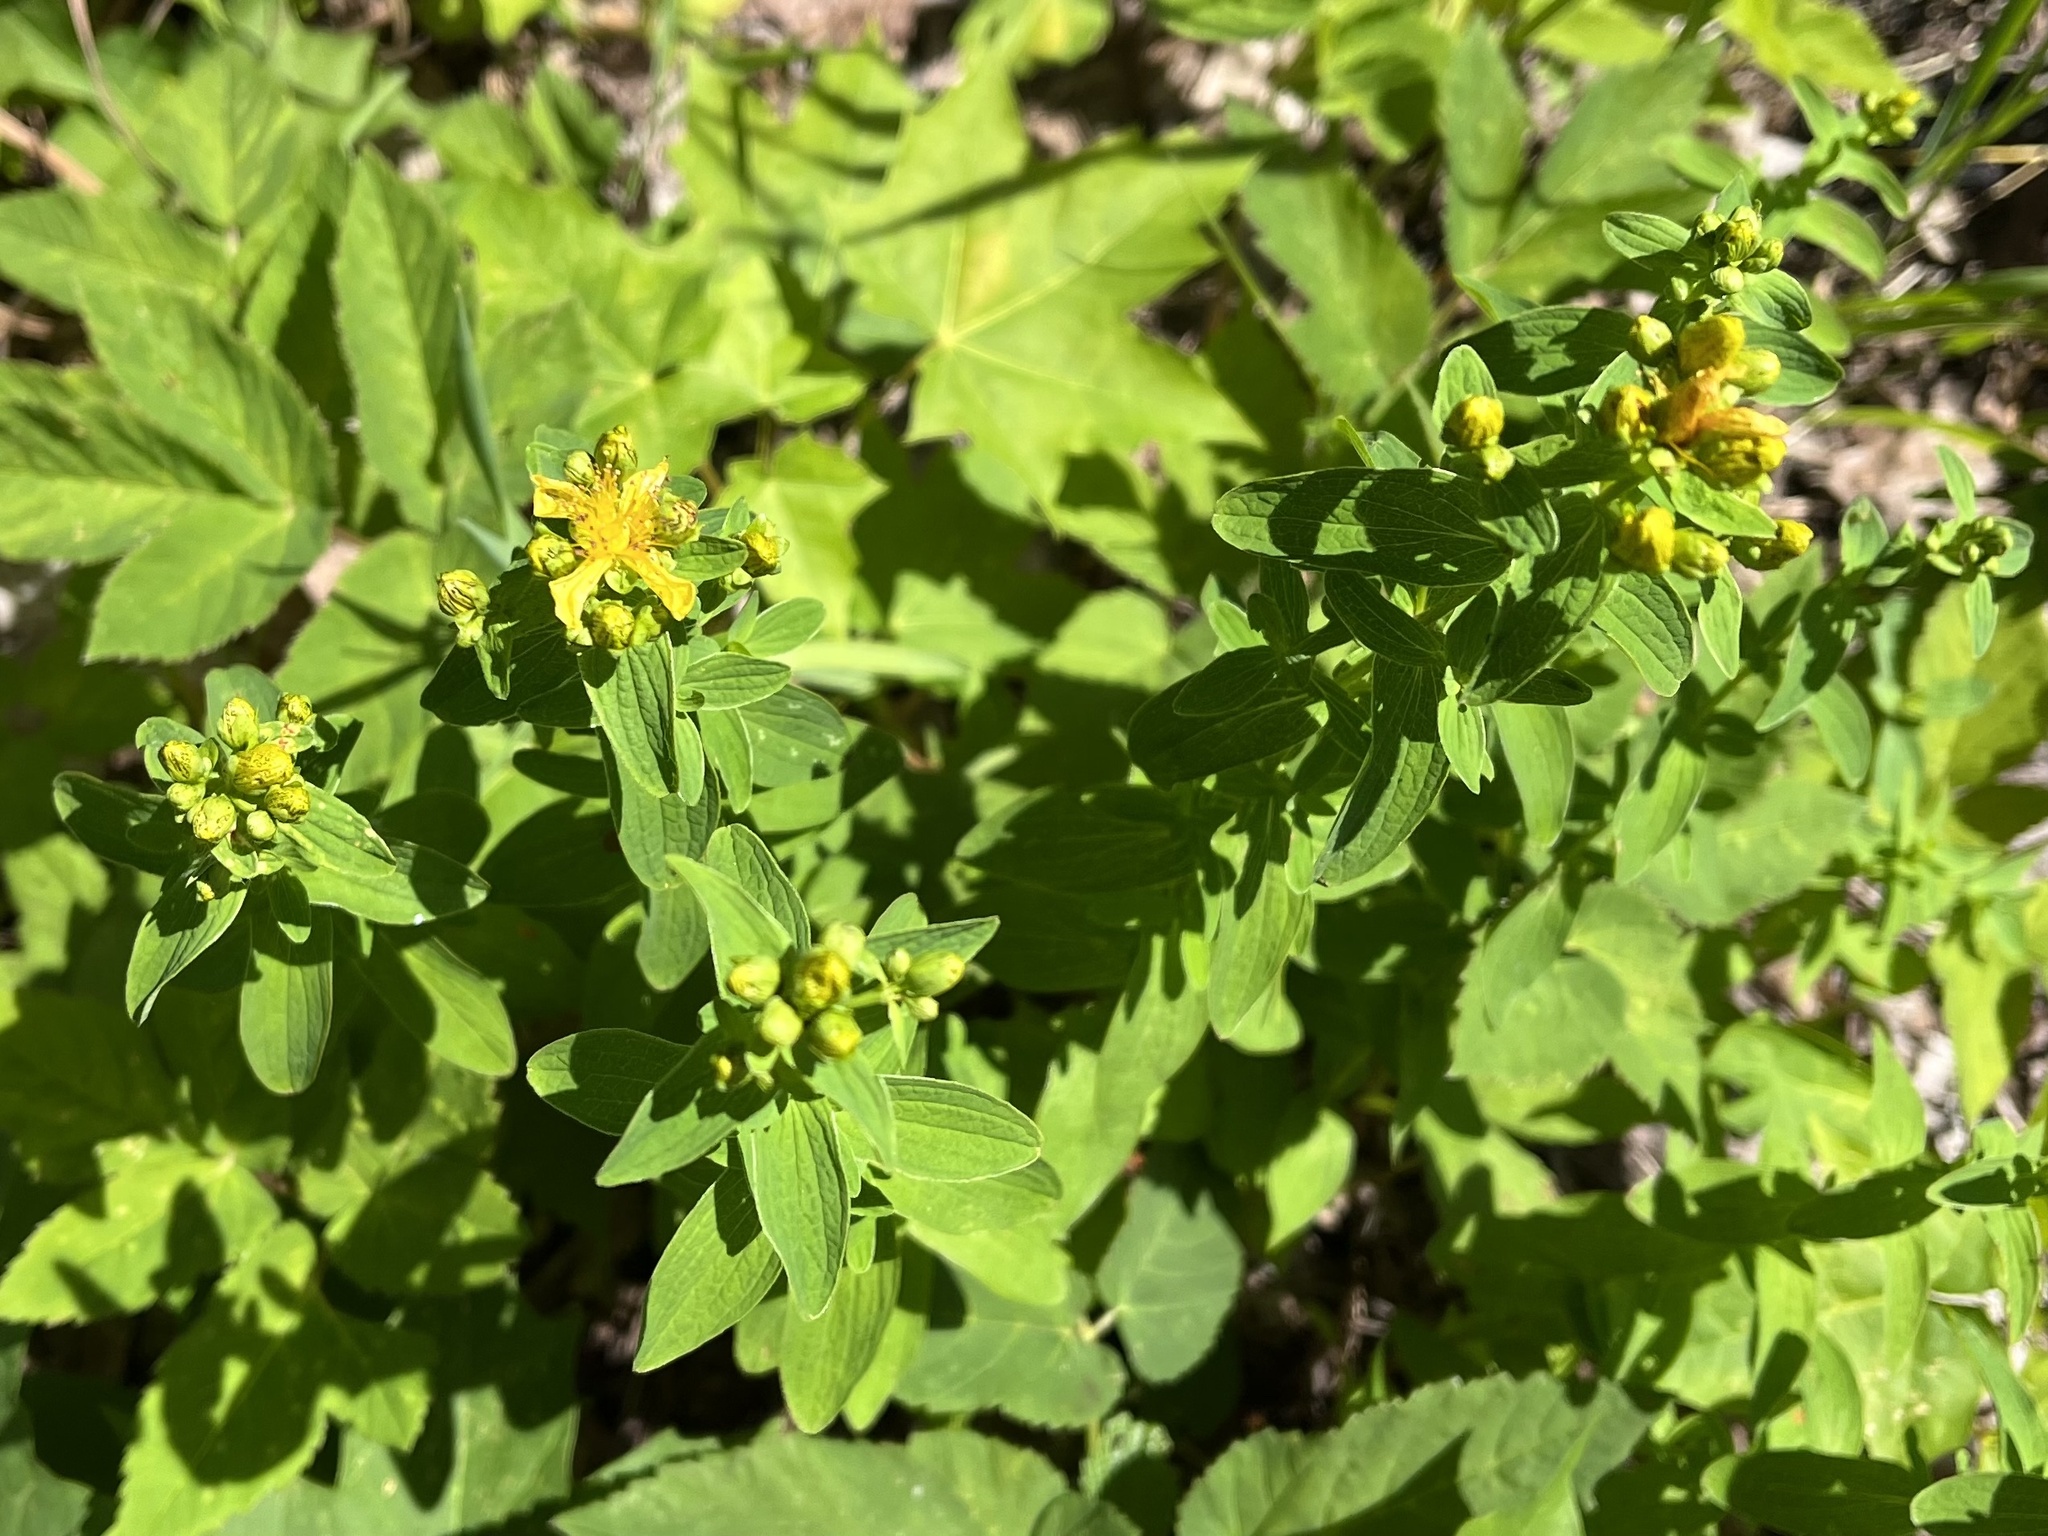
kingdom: Plantae
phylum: Tracheophyta
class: Magnoliopsida
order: Malpighiales
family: Hypericaceae
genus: Hypericum
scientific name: Hypericum maculatum
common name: Imperforate st. john's-wort
